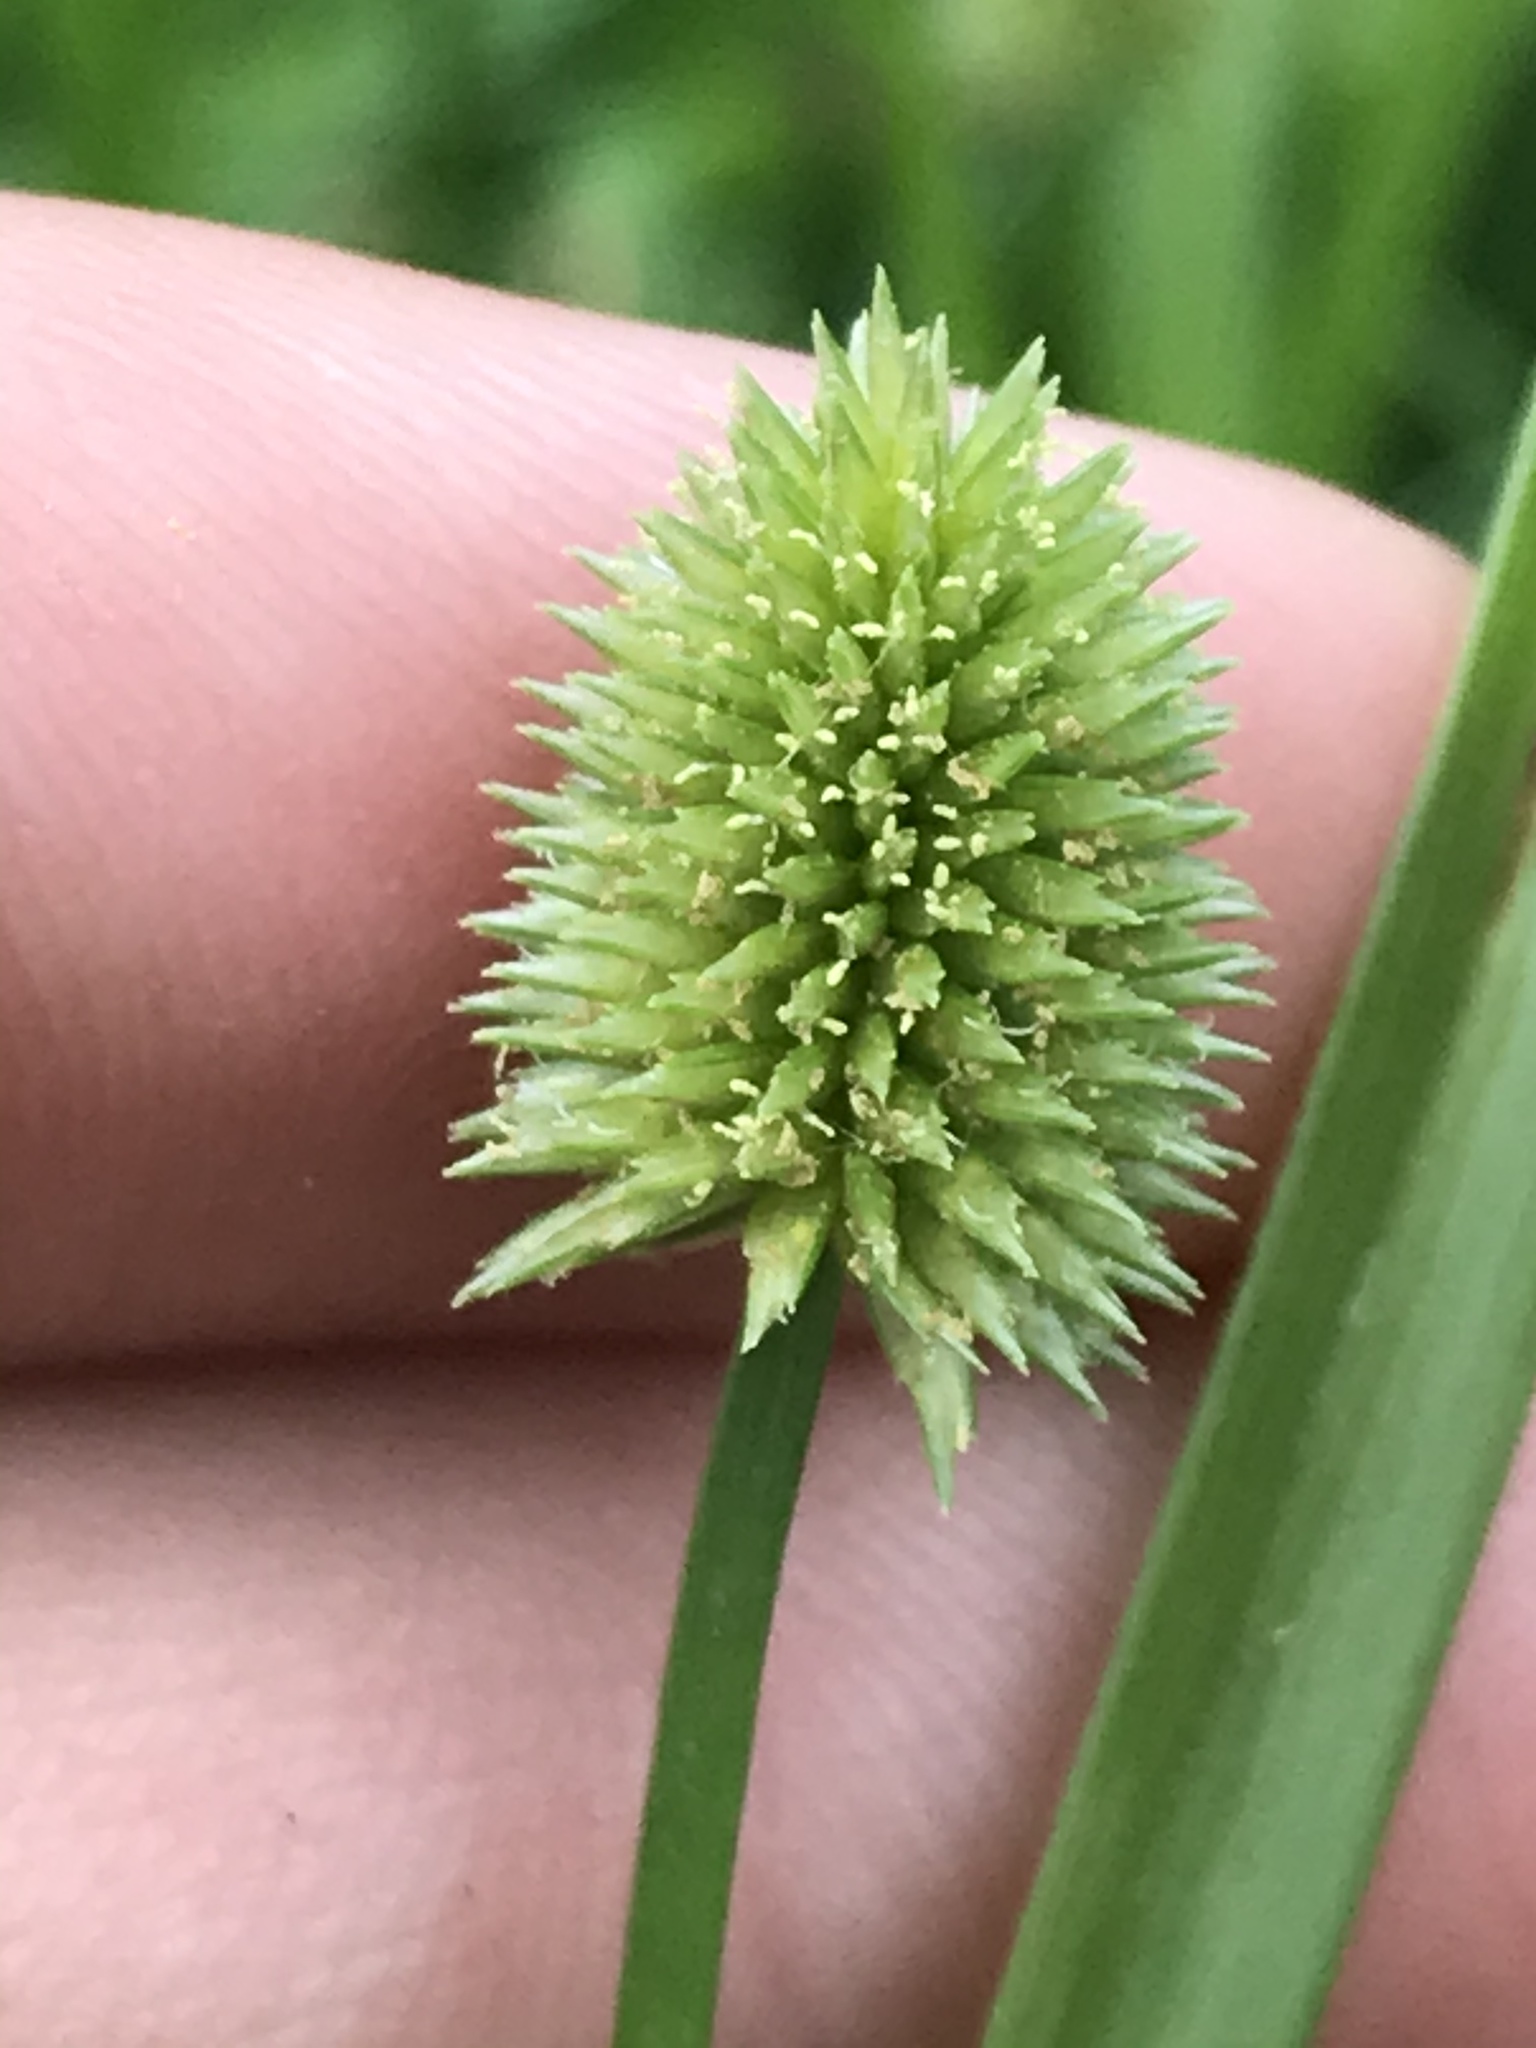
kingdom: Plantae
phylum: Tracheophyta
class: Liliopsida
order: Poales
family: Cyperaceae
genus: Cyperus
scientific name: Cyperus retrorsus
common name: Pinebarren flat sedge
